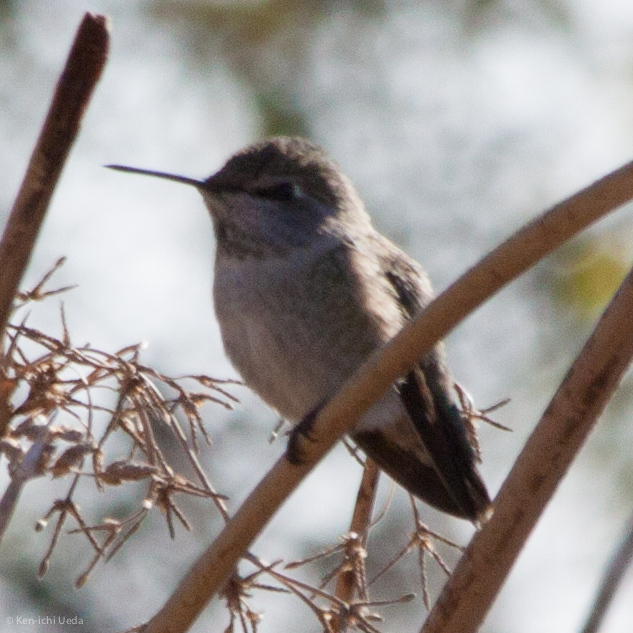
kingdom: Animalia
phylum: Chordata
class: Aves
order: Apodiformes
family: Trochilidae
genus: Calypte
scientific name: Calypte anna
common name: Anna's hummingbird
